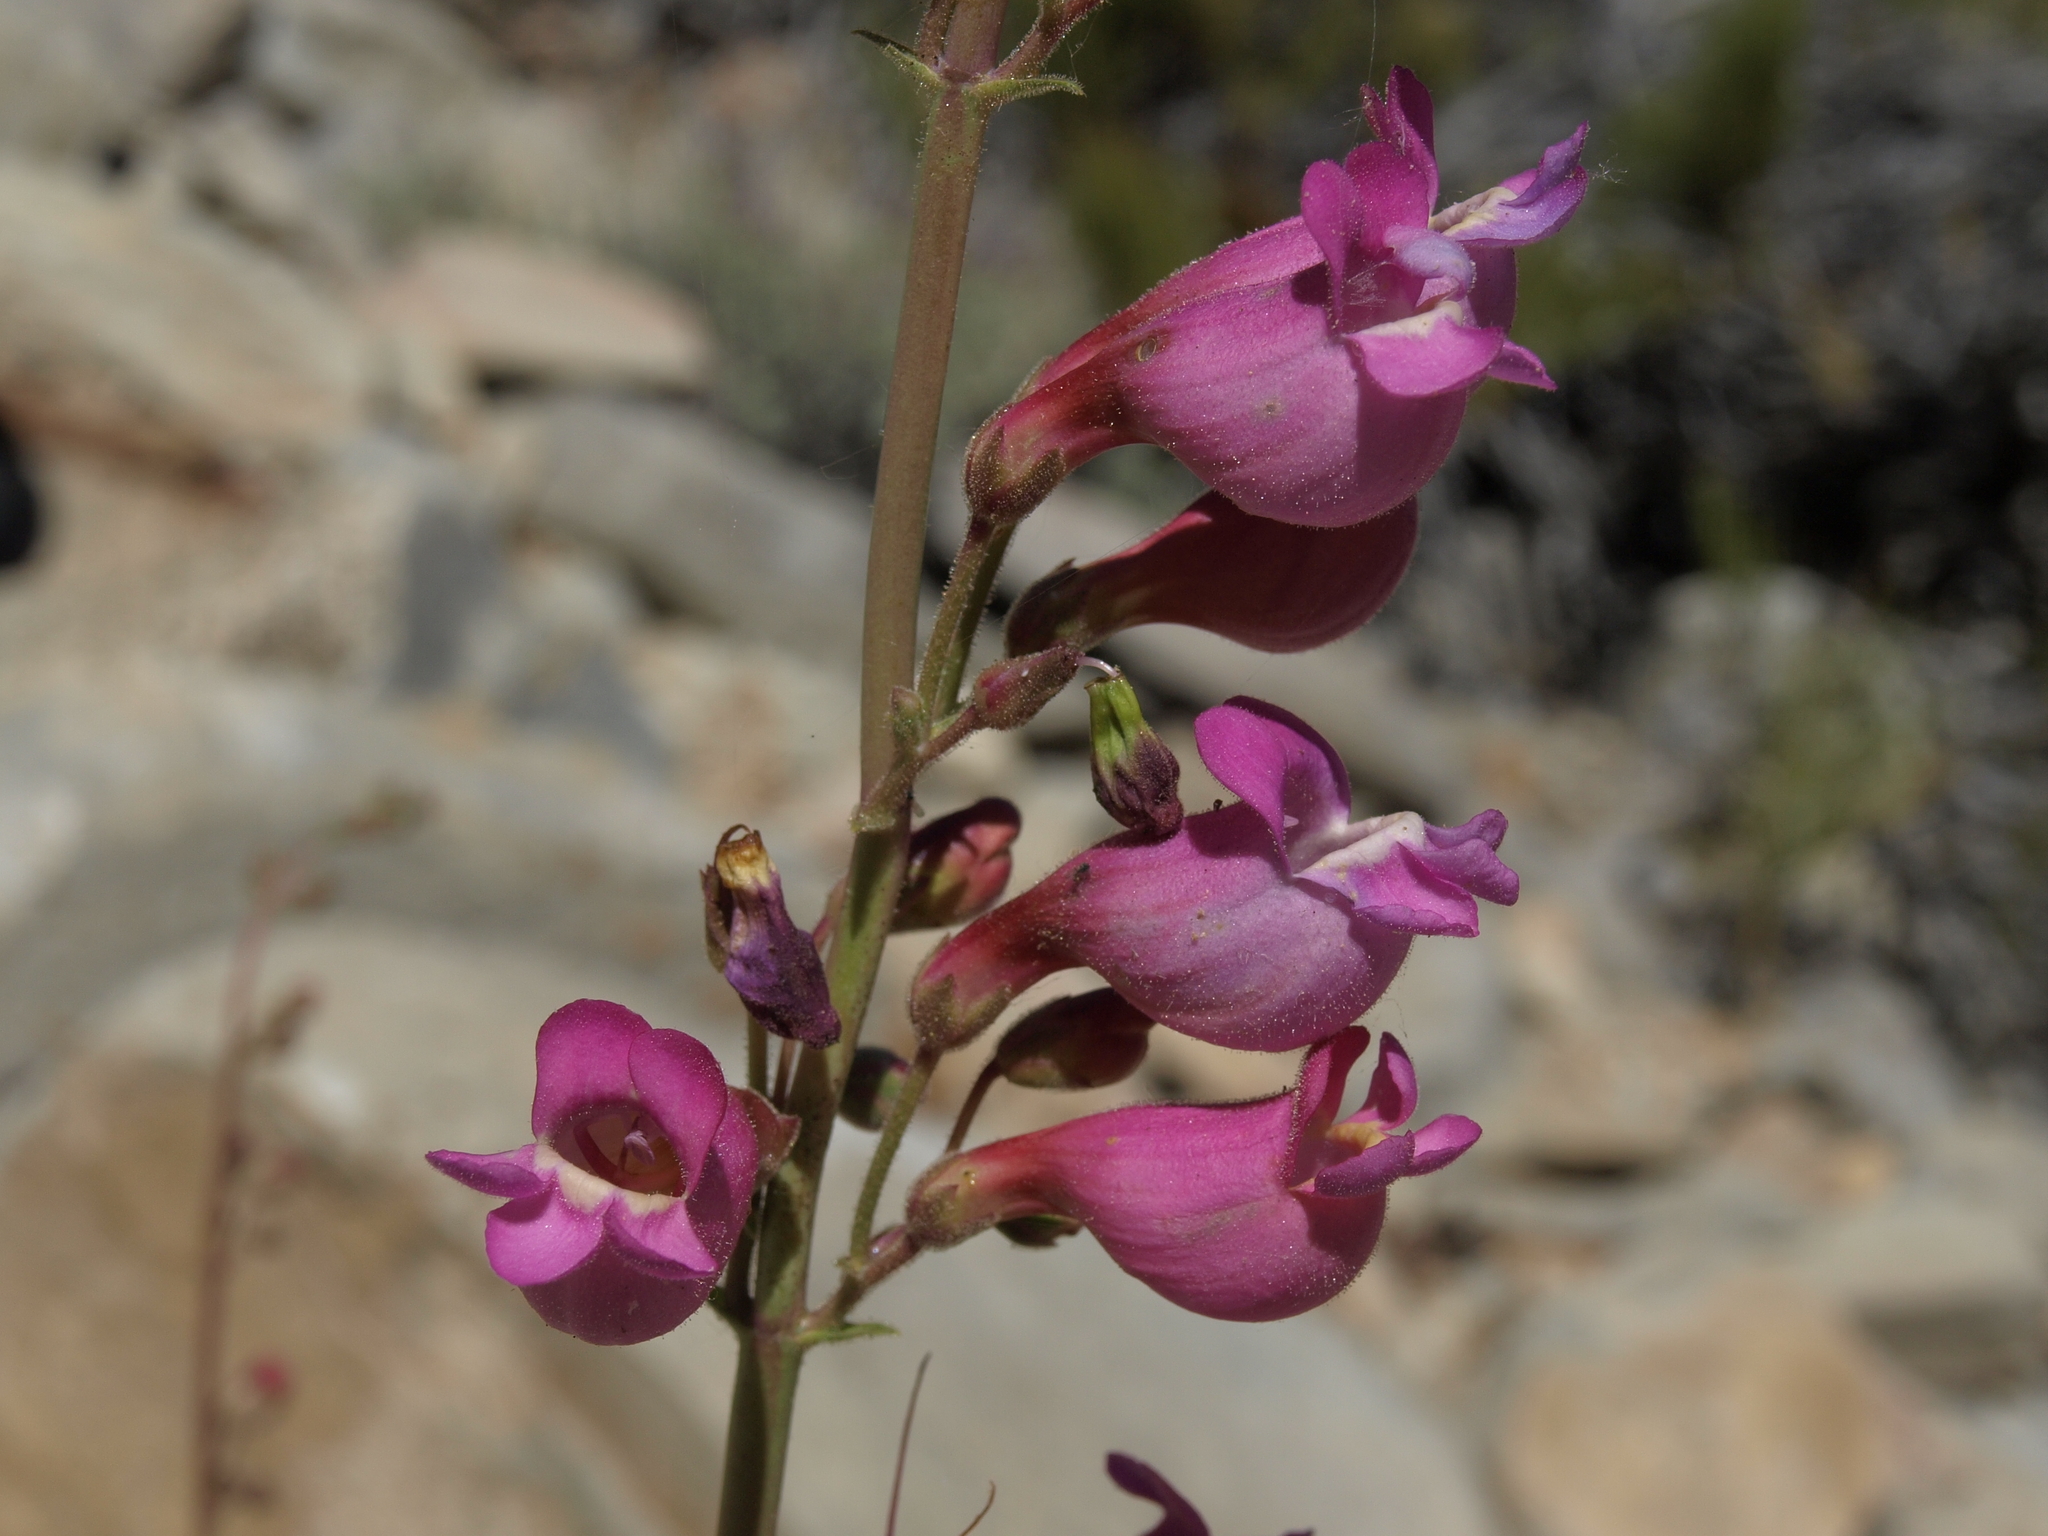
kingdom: Plantae
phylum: Tracheophyta
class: Magnoliopsida
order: Lamiales
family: Plantaginaceae
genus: Penstemon
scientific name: Penstemon floridus
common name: Panamint penstemon
